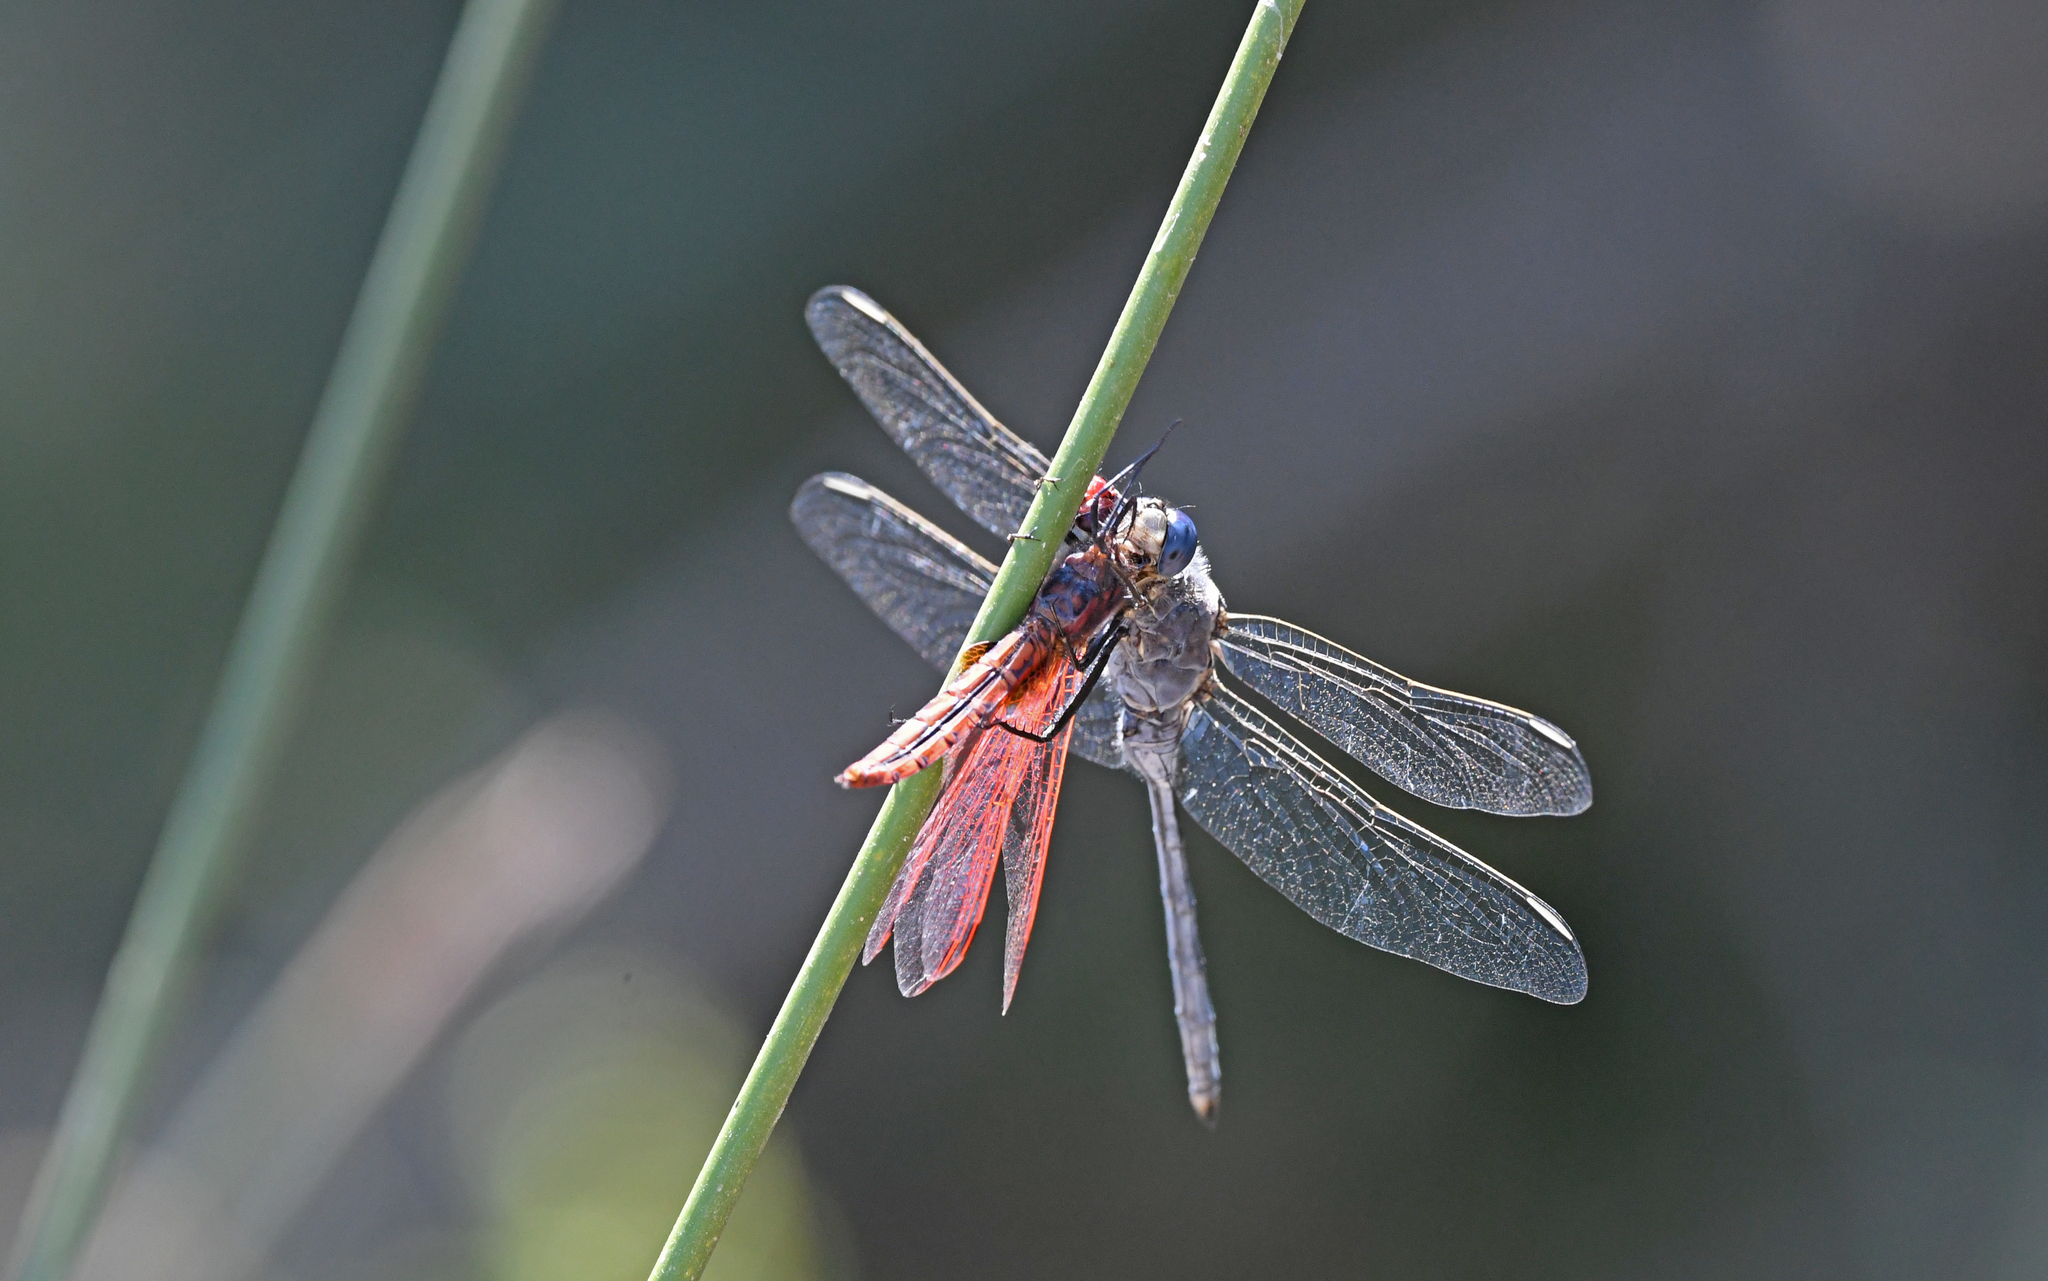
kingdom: Animalia
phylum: Arthropoda
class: Insecta
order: Odonata
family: Libellulidae
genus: Orthetrum
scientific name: Orthetrum trinacria
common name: Long skimmer
